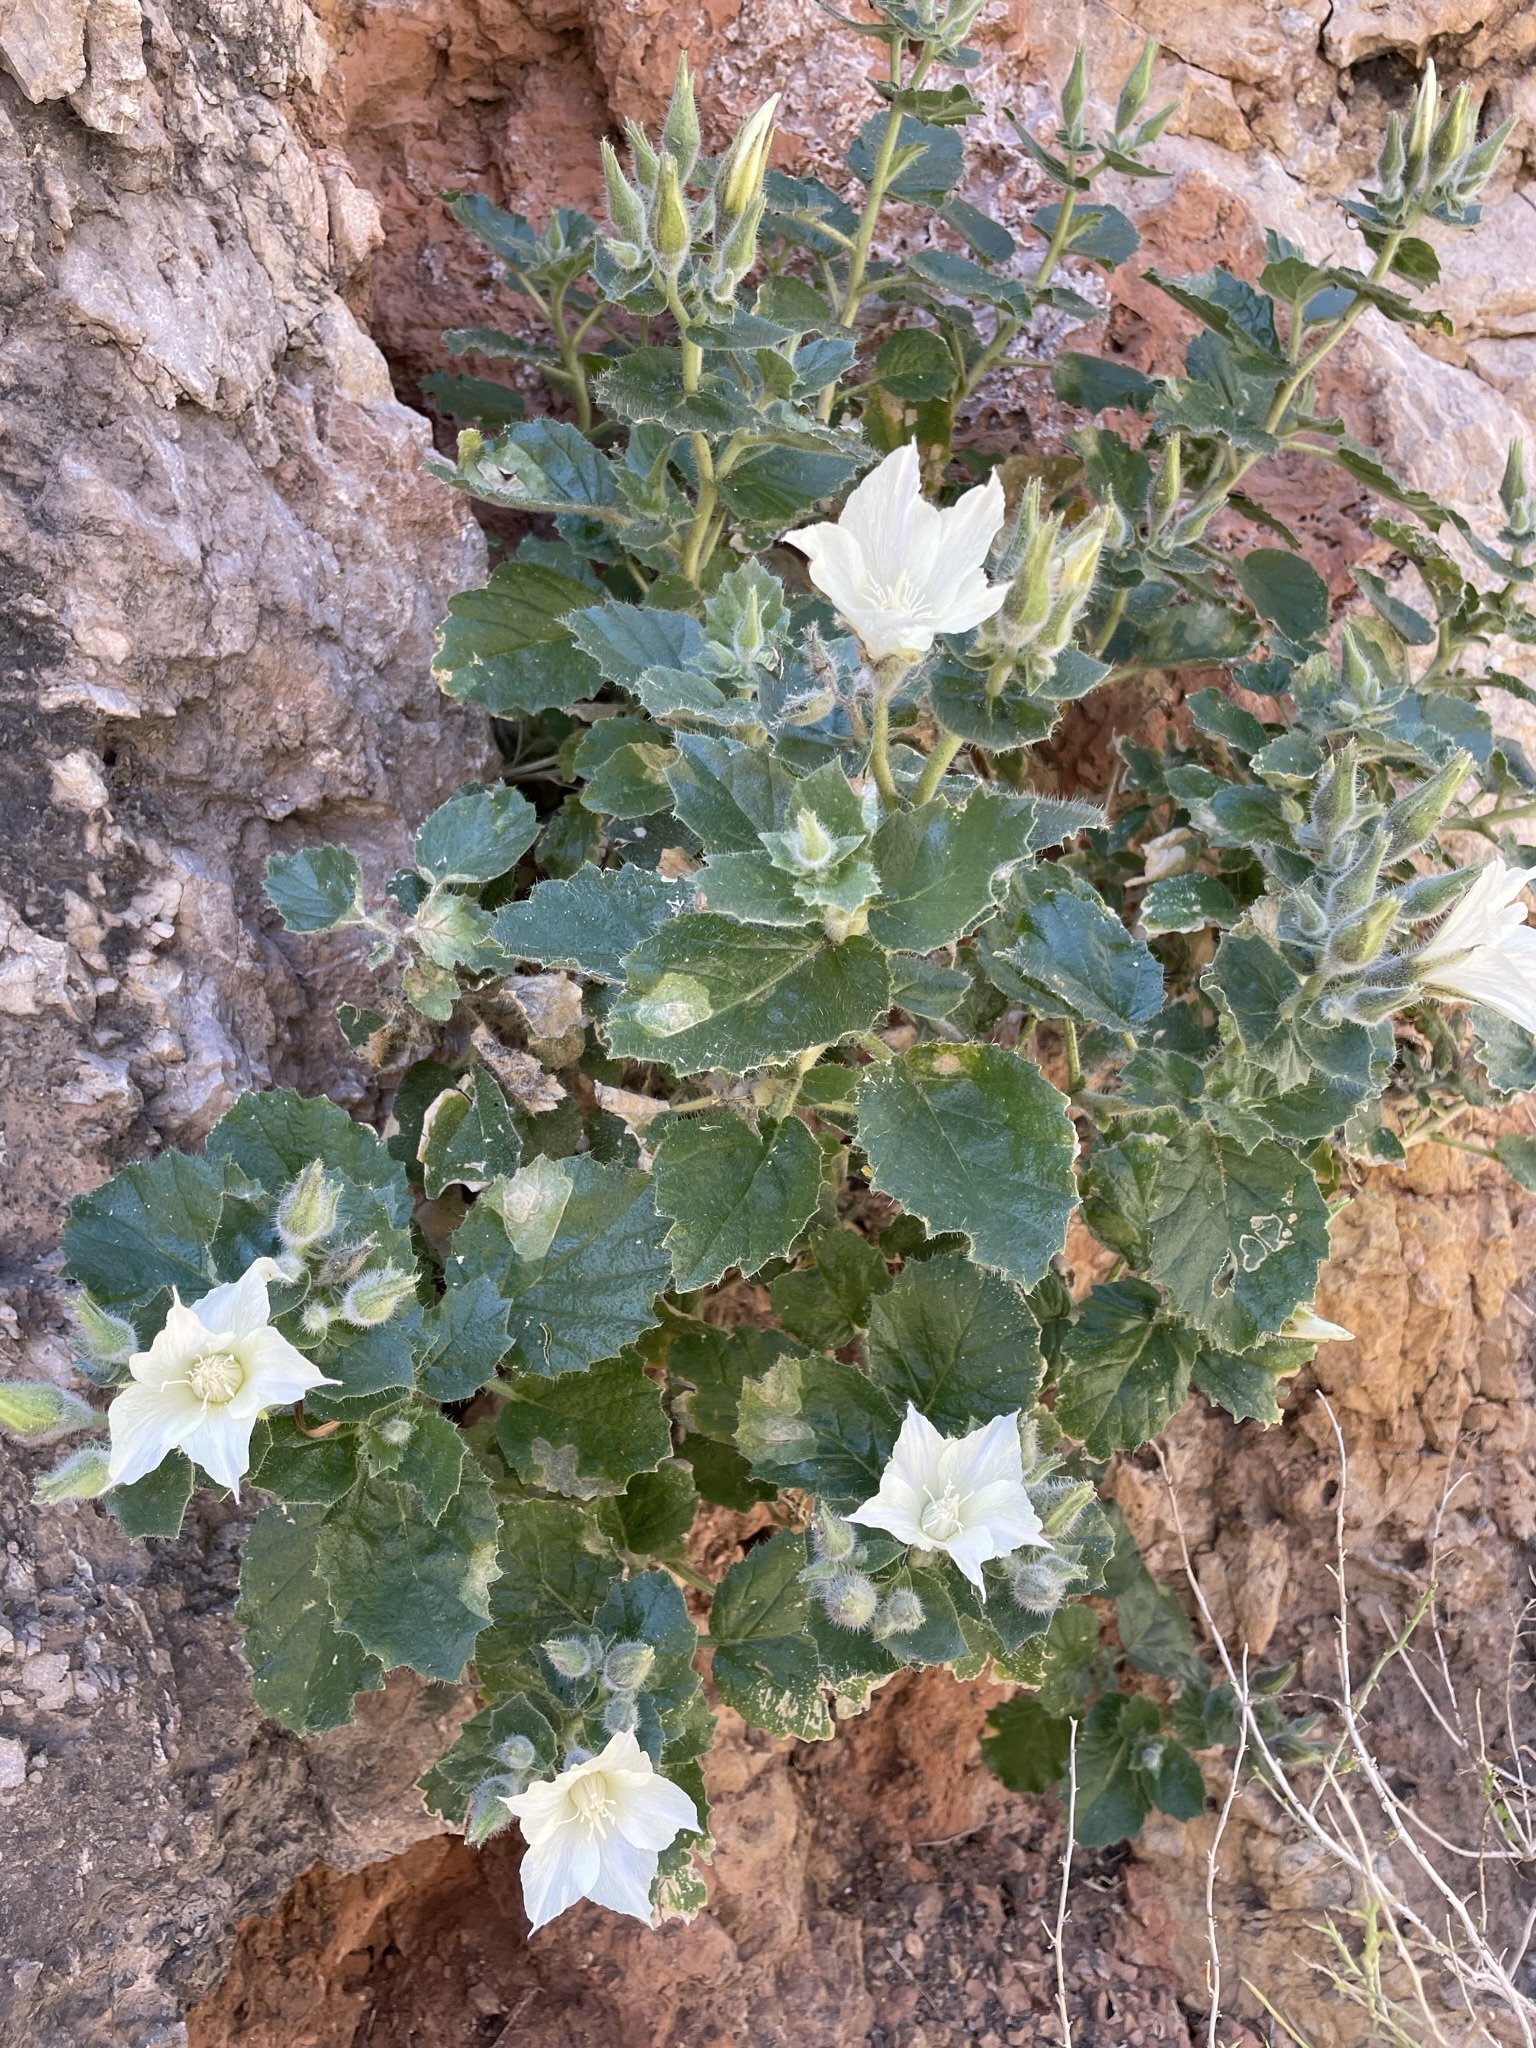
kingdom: Plantae
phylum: Tracheophyta
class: Magnoliopsida
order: Cornales
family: Loasaceae
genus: Eucnide
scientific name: Eucnide urens
